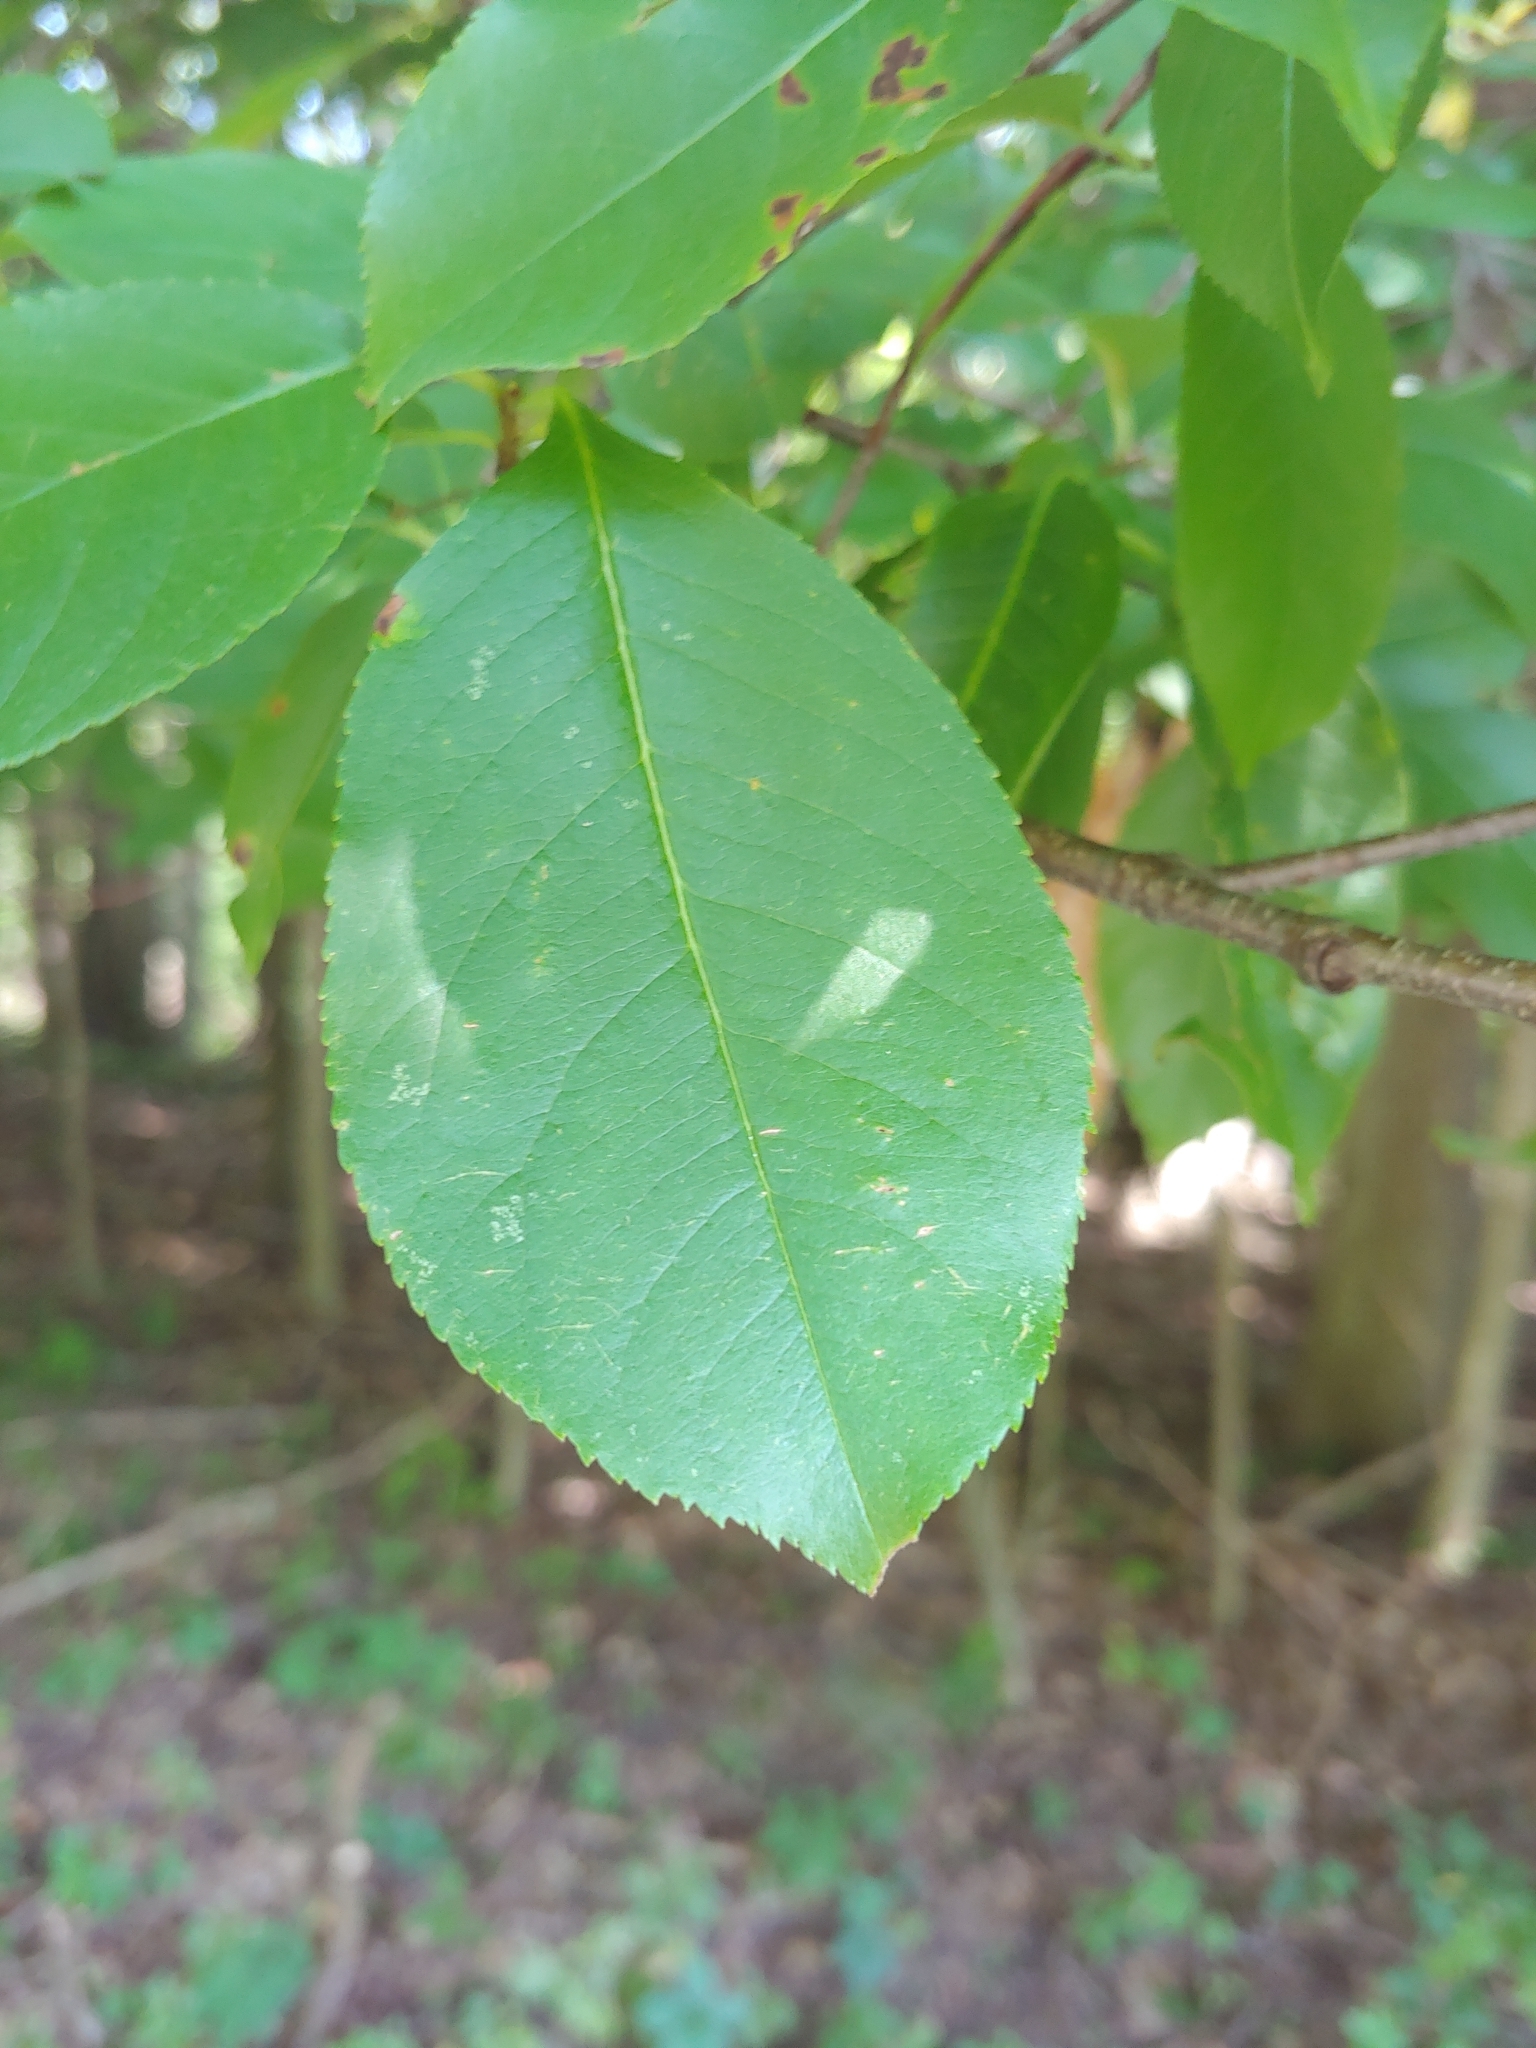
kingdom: Plantae
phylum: Tracheophyta
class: Magnoliopsida
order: Rosales
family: Rosaceae
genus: Prunus
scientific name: Prunus serotina
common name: Black cherry
